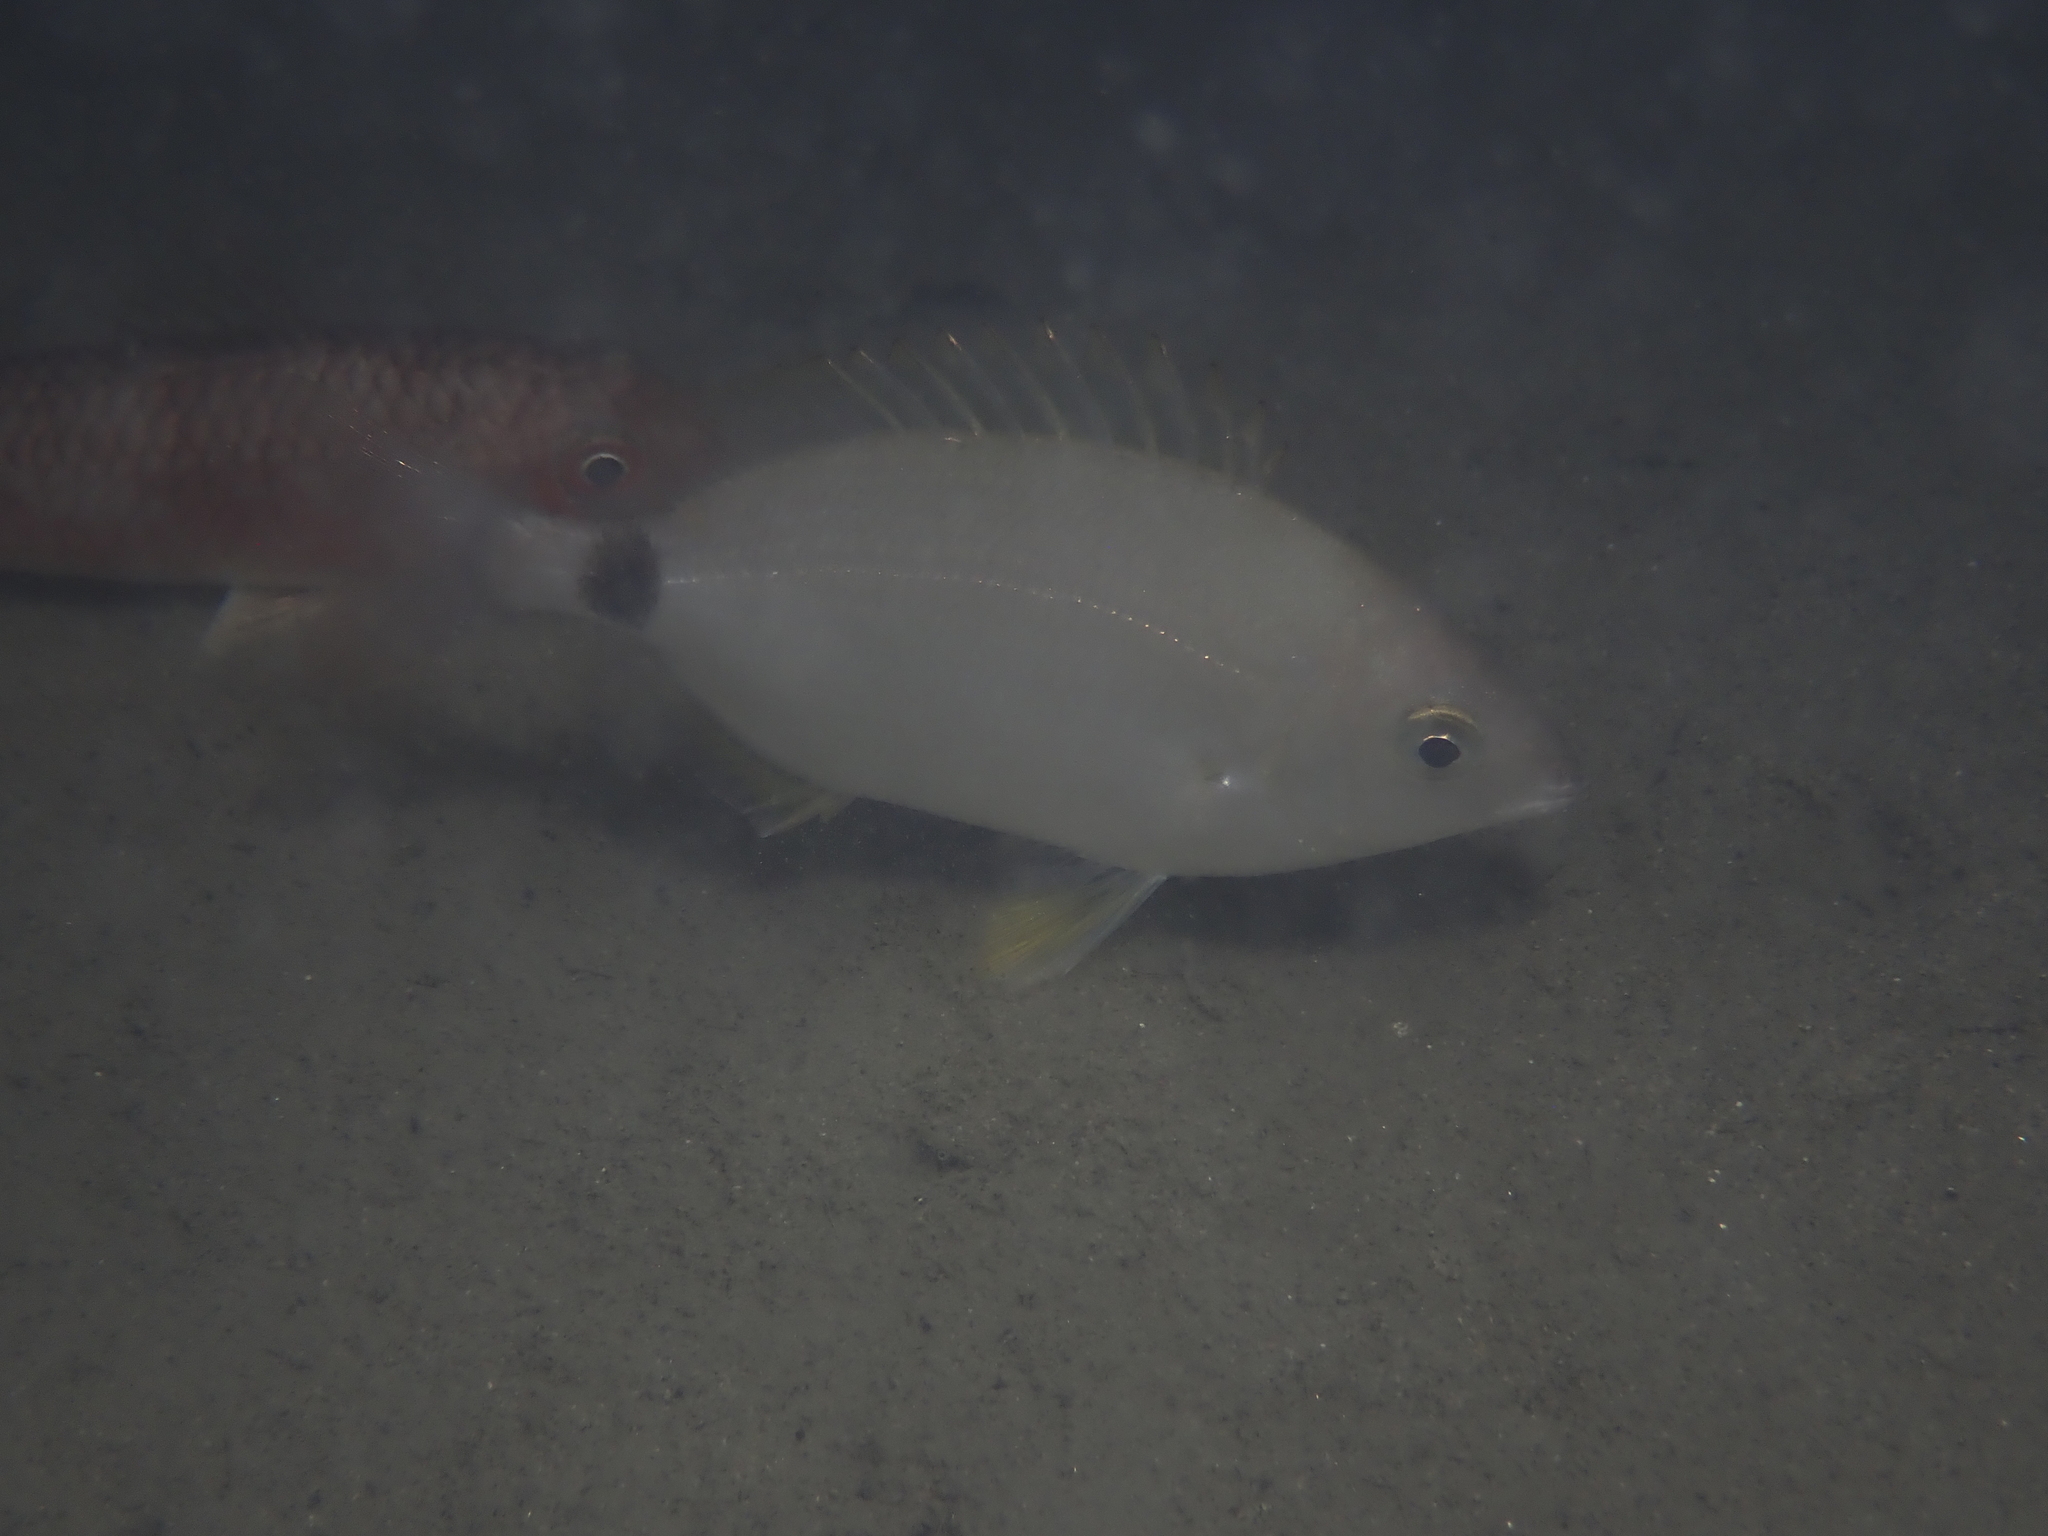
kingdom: Animalia
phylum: Chordata
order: Perciformes
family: Sparidae
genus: Diplodus
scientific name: Diplodus annularis
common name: Annular seabream
